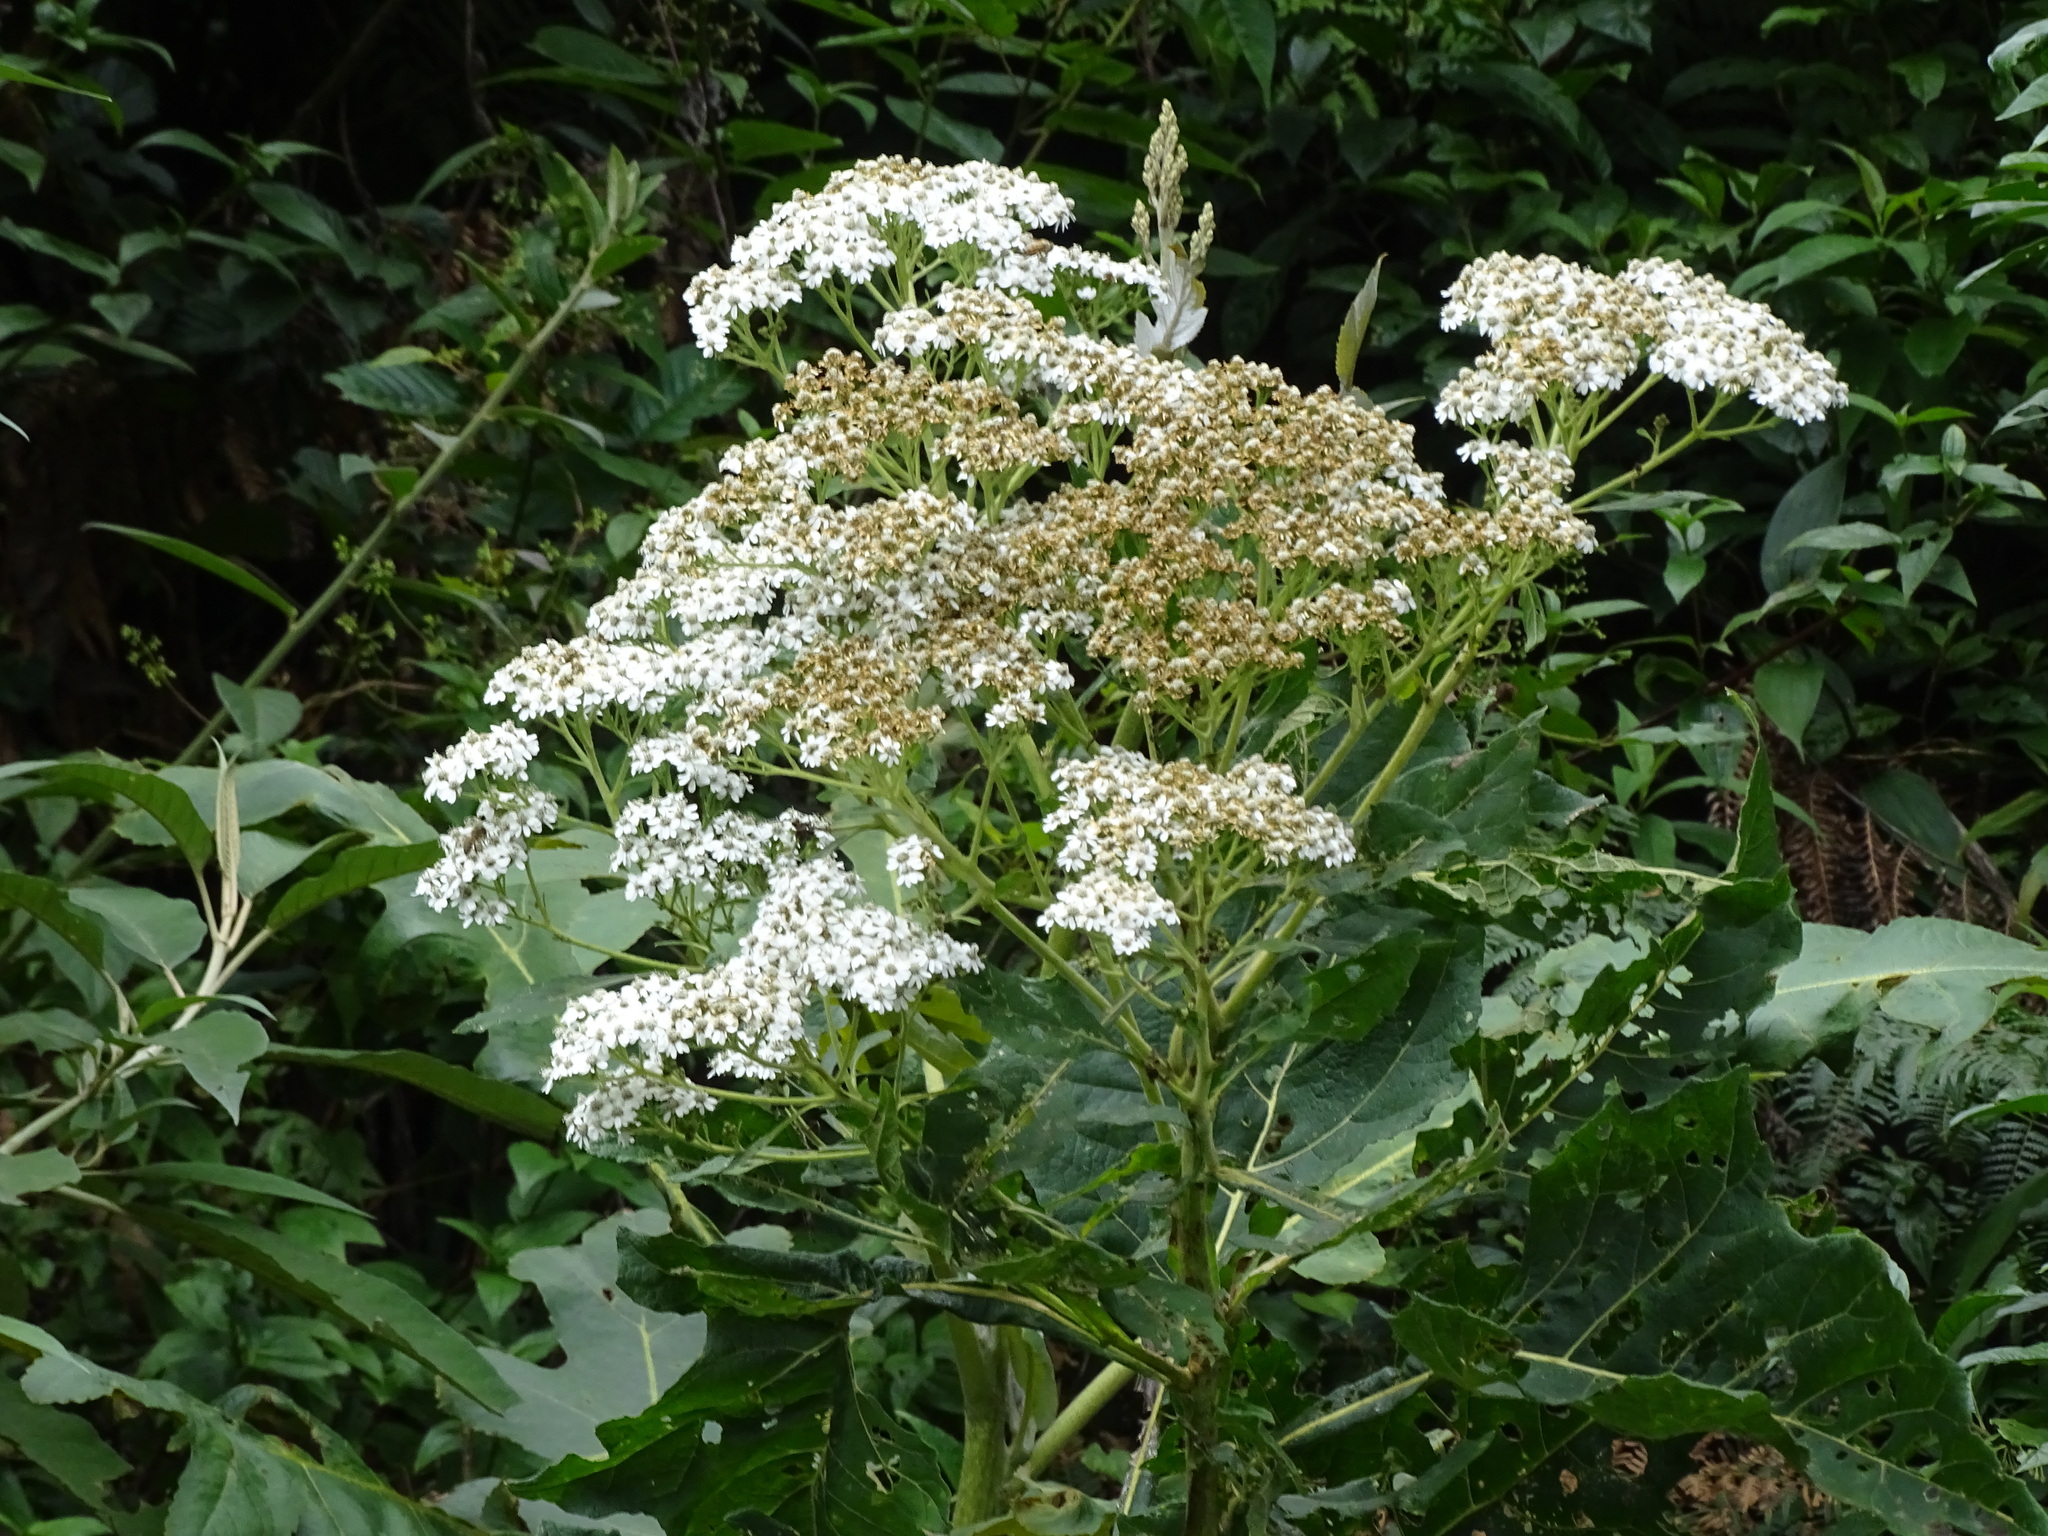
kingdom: Plantae
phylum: Tracheophyta
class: Magnoliopsida
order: Asterales
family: Asteraceae
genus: Verbesina
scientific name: Verbesina turbacensis
